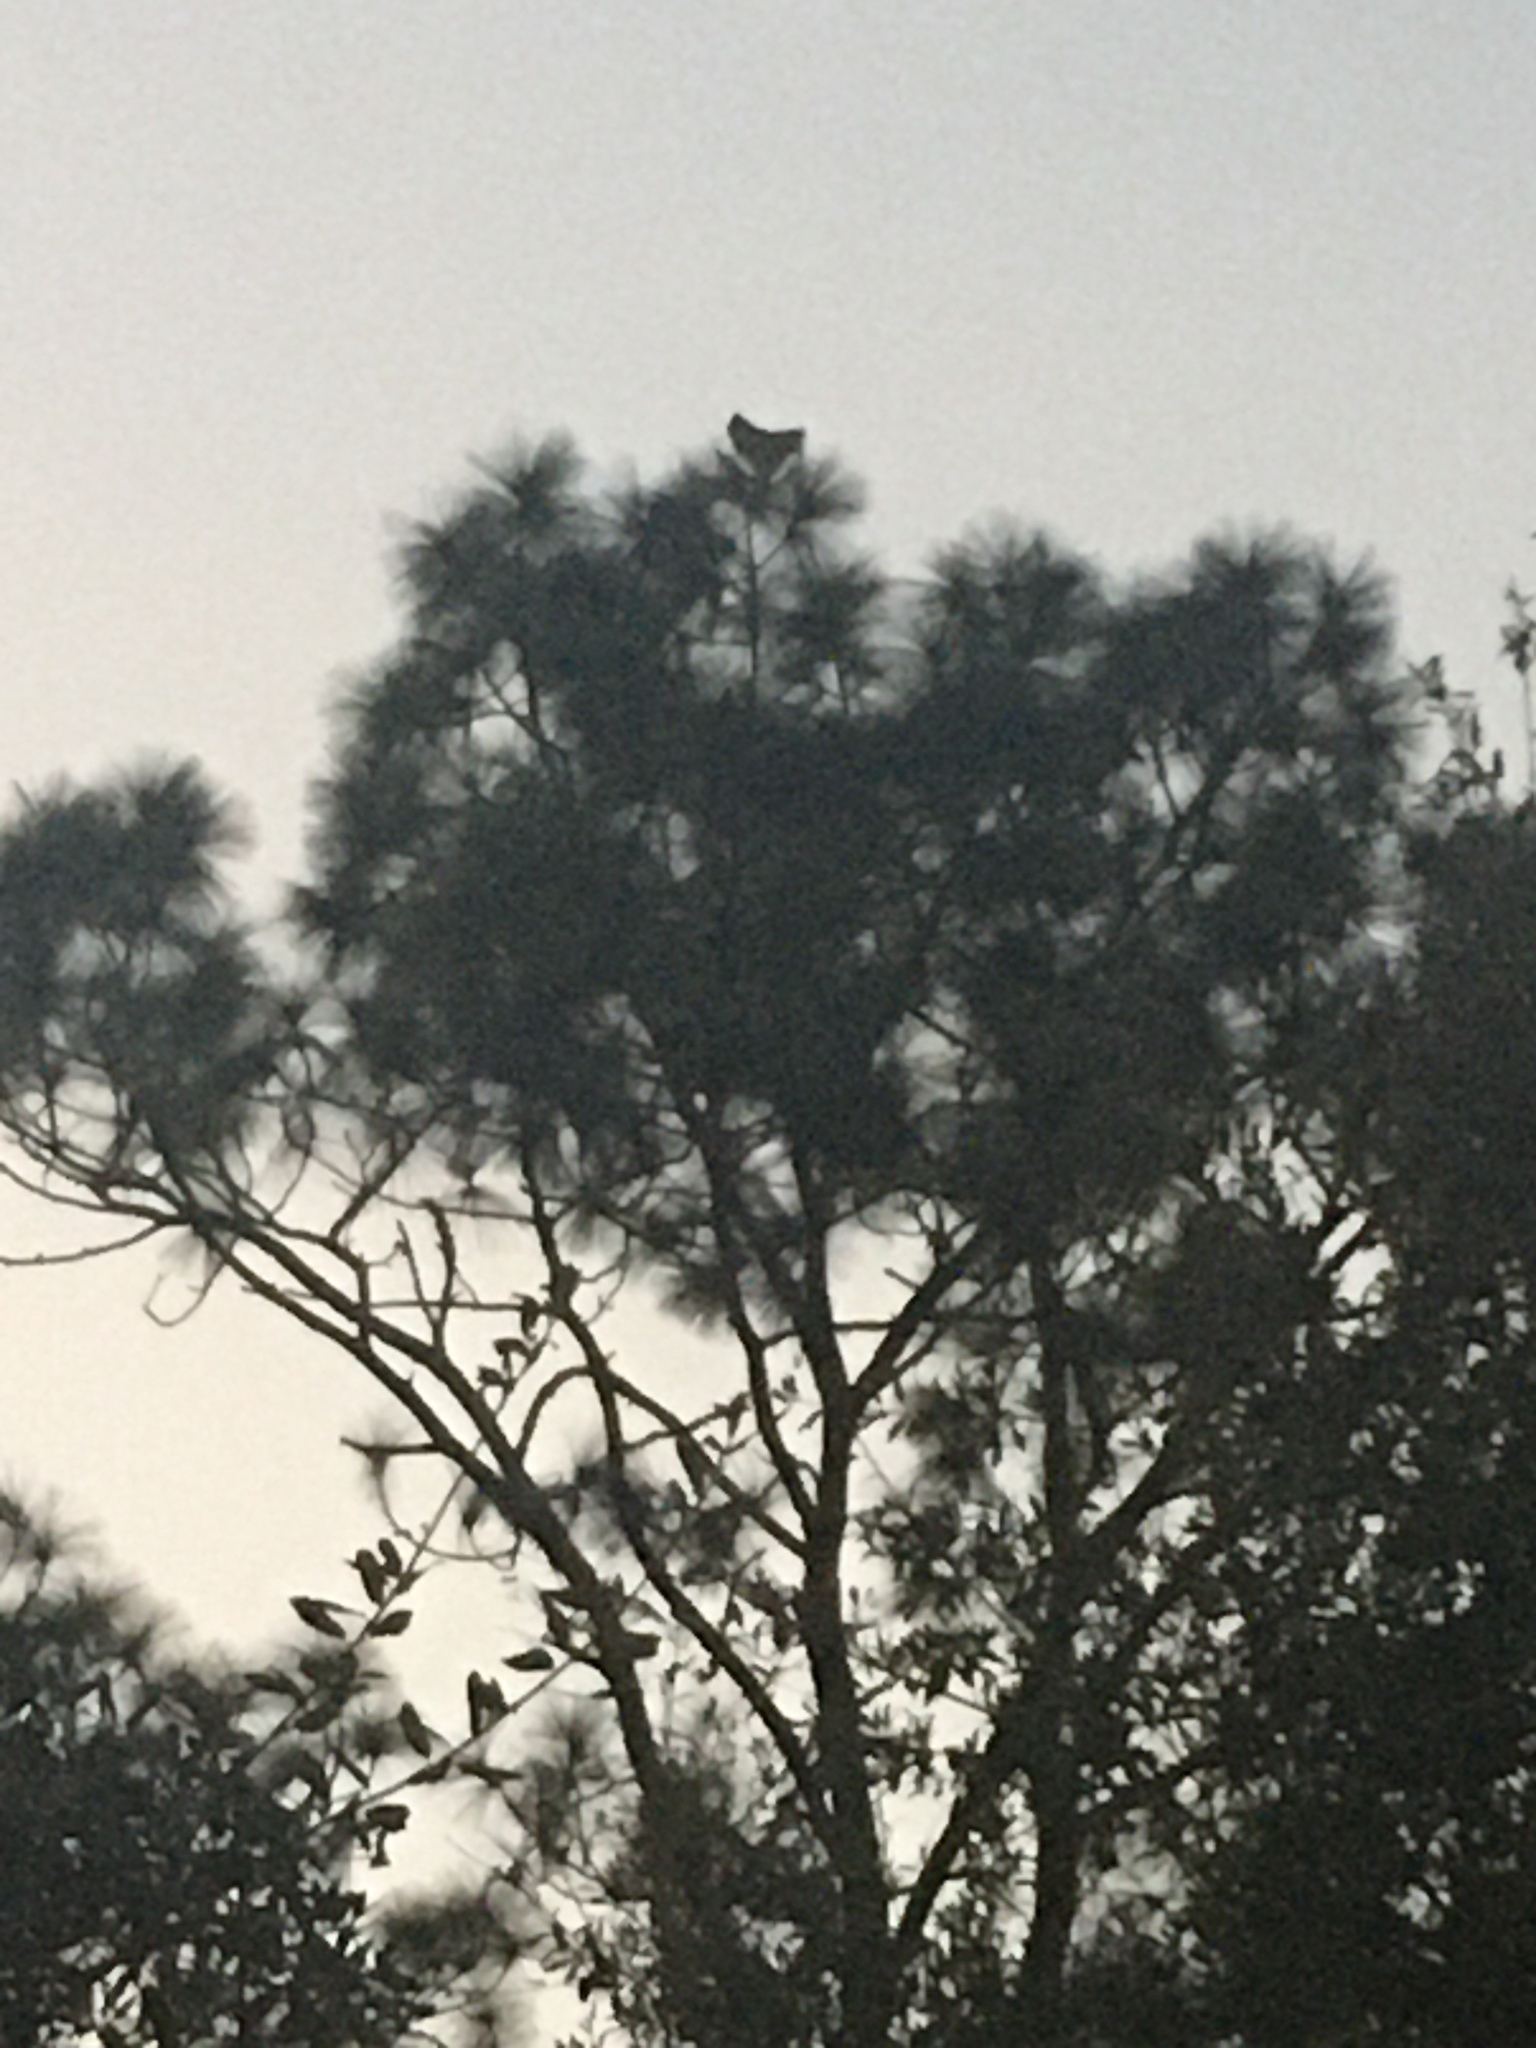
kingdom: Animalia
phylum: Chordata
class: Aves
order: Strigiformes
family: Strigidae
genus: Bubo
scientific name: Bubo virginianus
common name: Great horned owl
